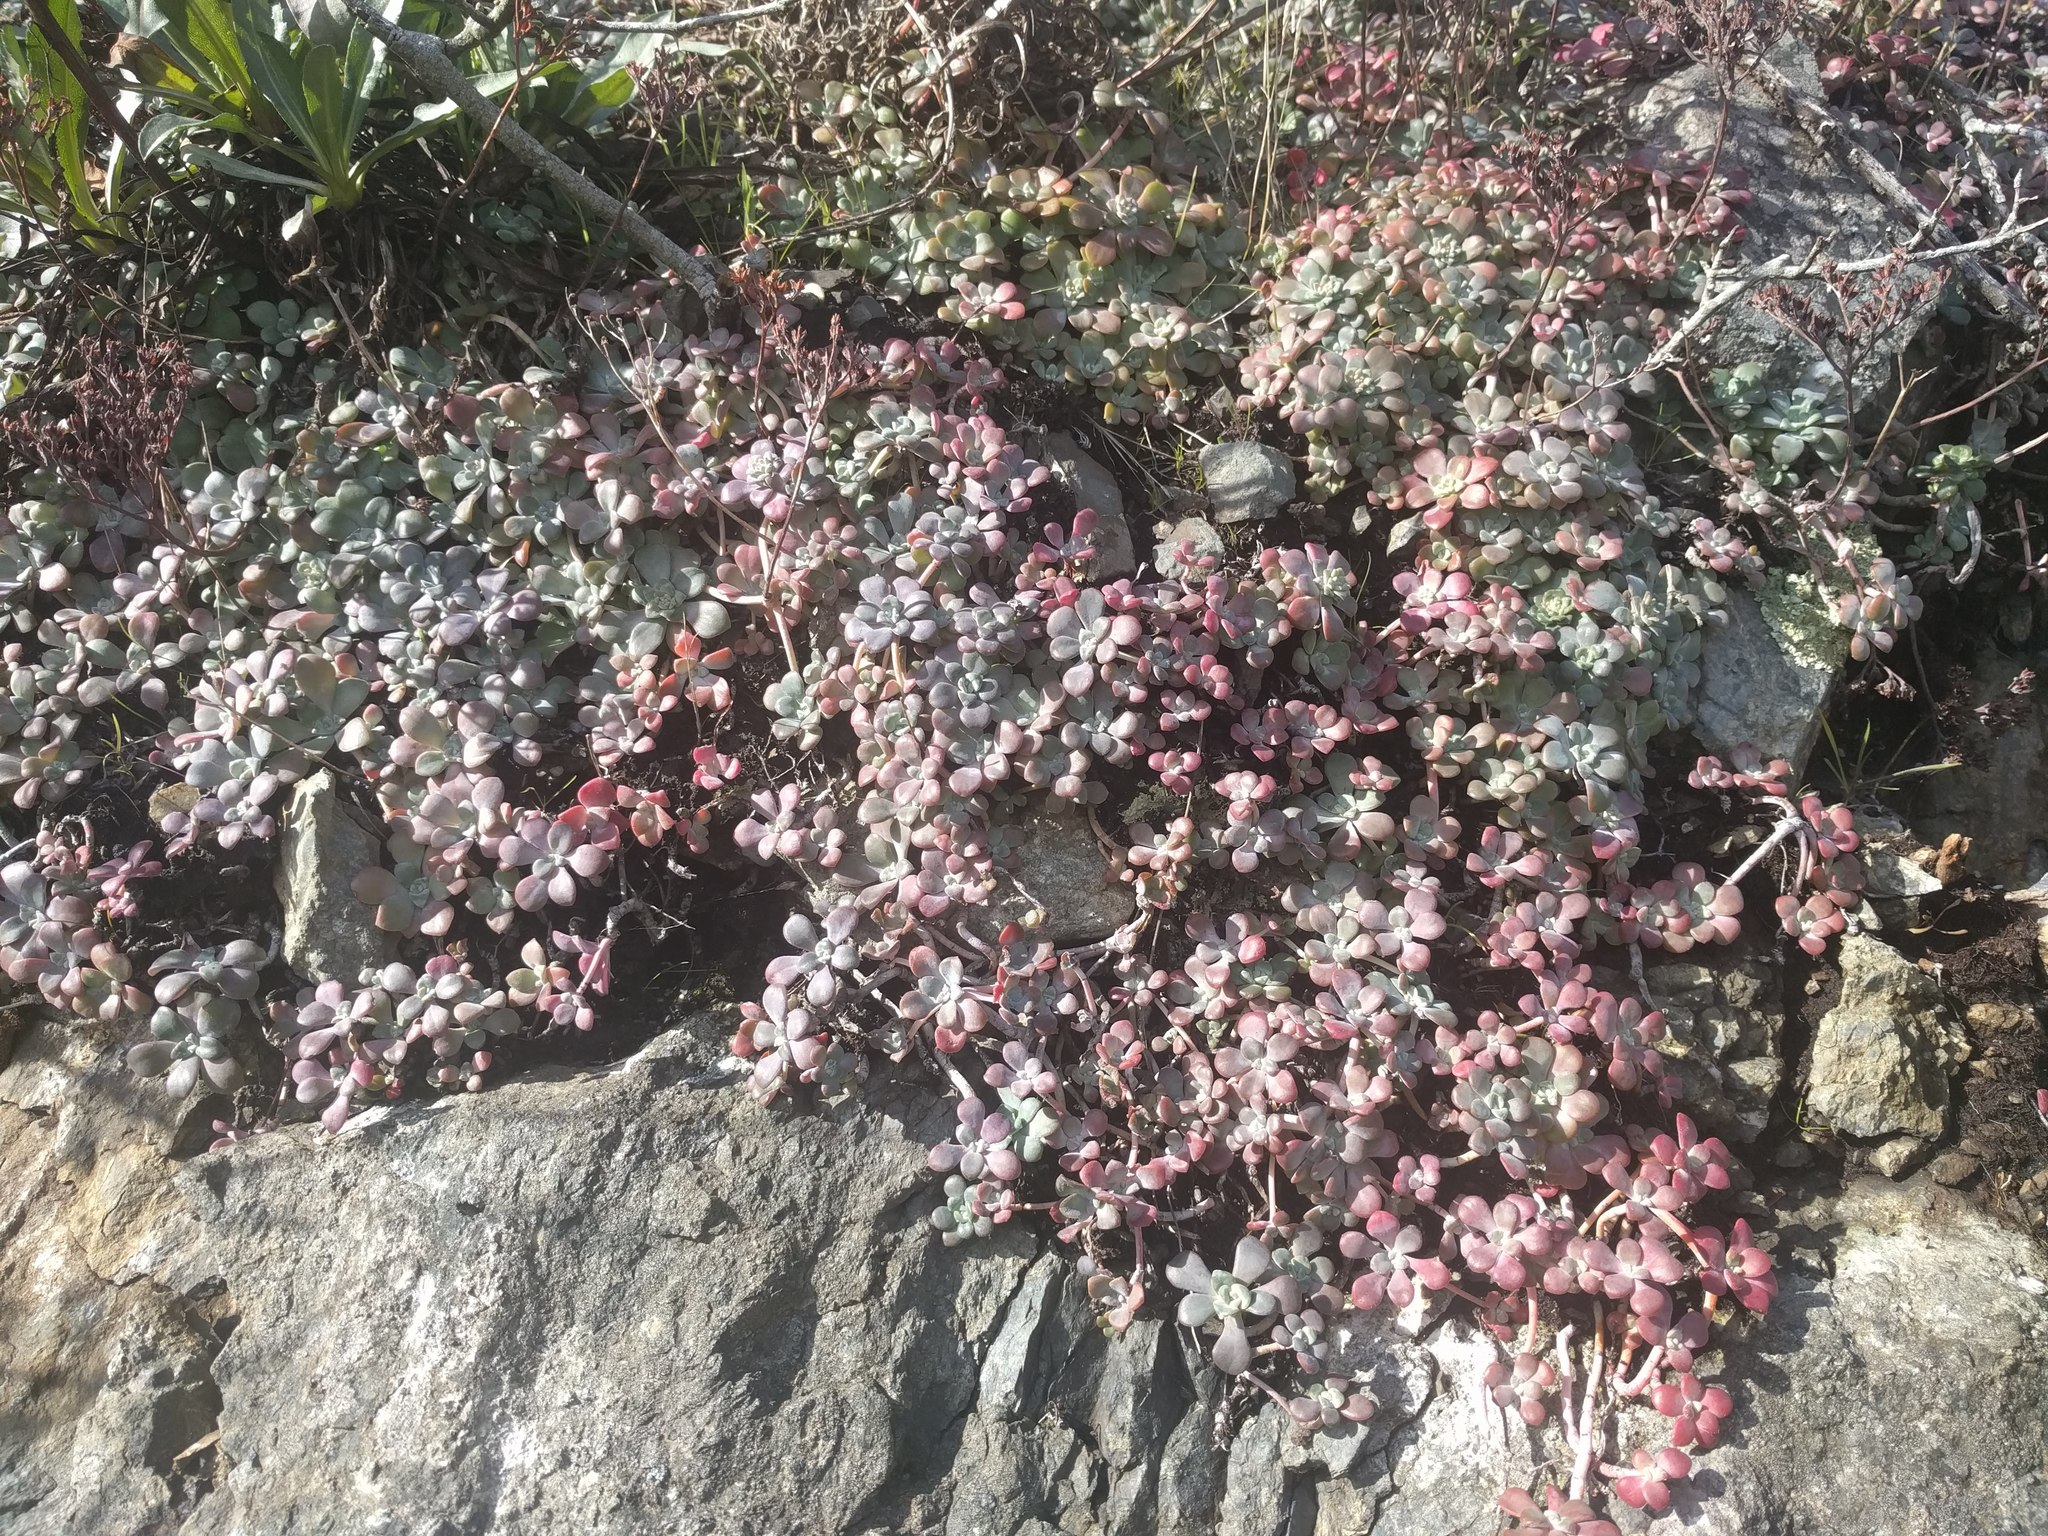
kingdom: Plantae
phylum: Tracheophyta
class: Magnoliopsida
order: Saxifragales
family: Crassulaceae
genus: Sedum
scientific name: Sedum spathulifolium
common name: Colorado stonecrop
